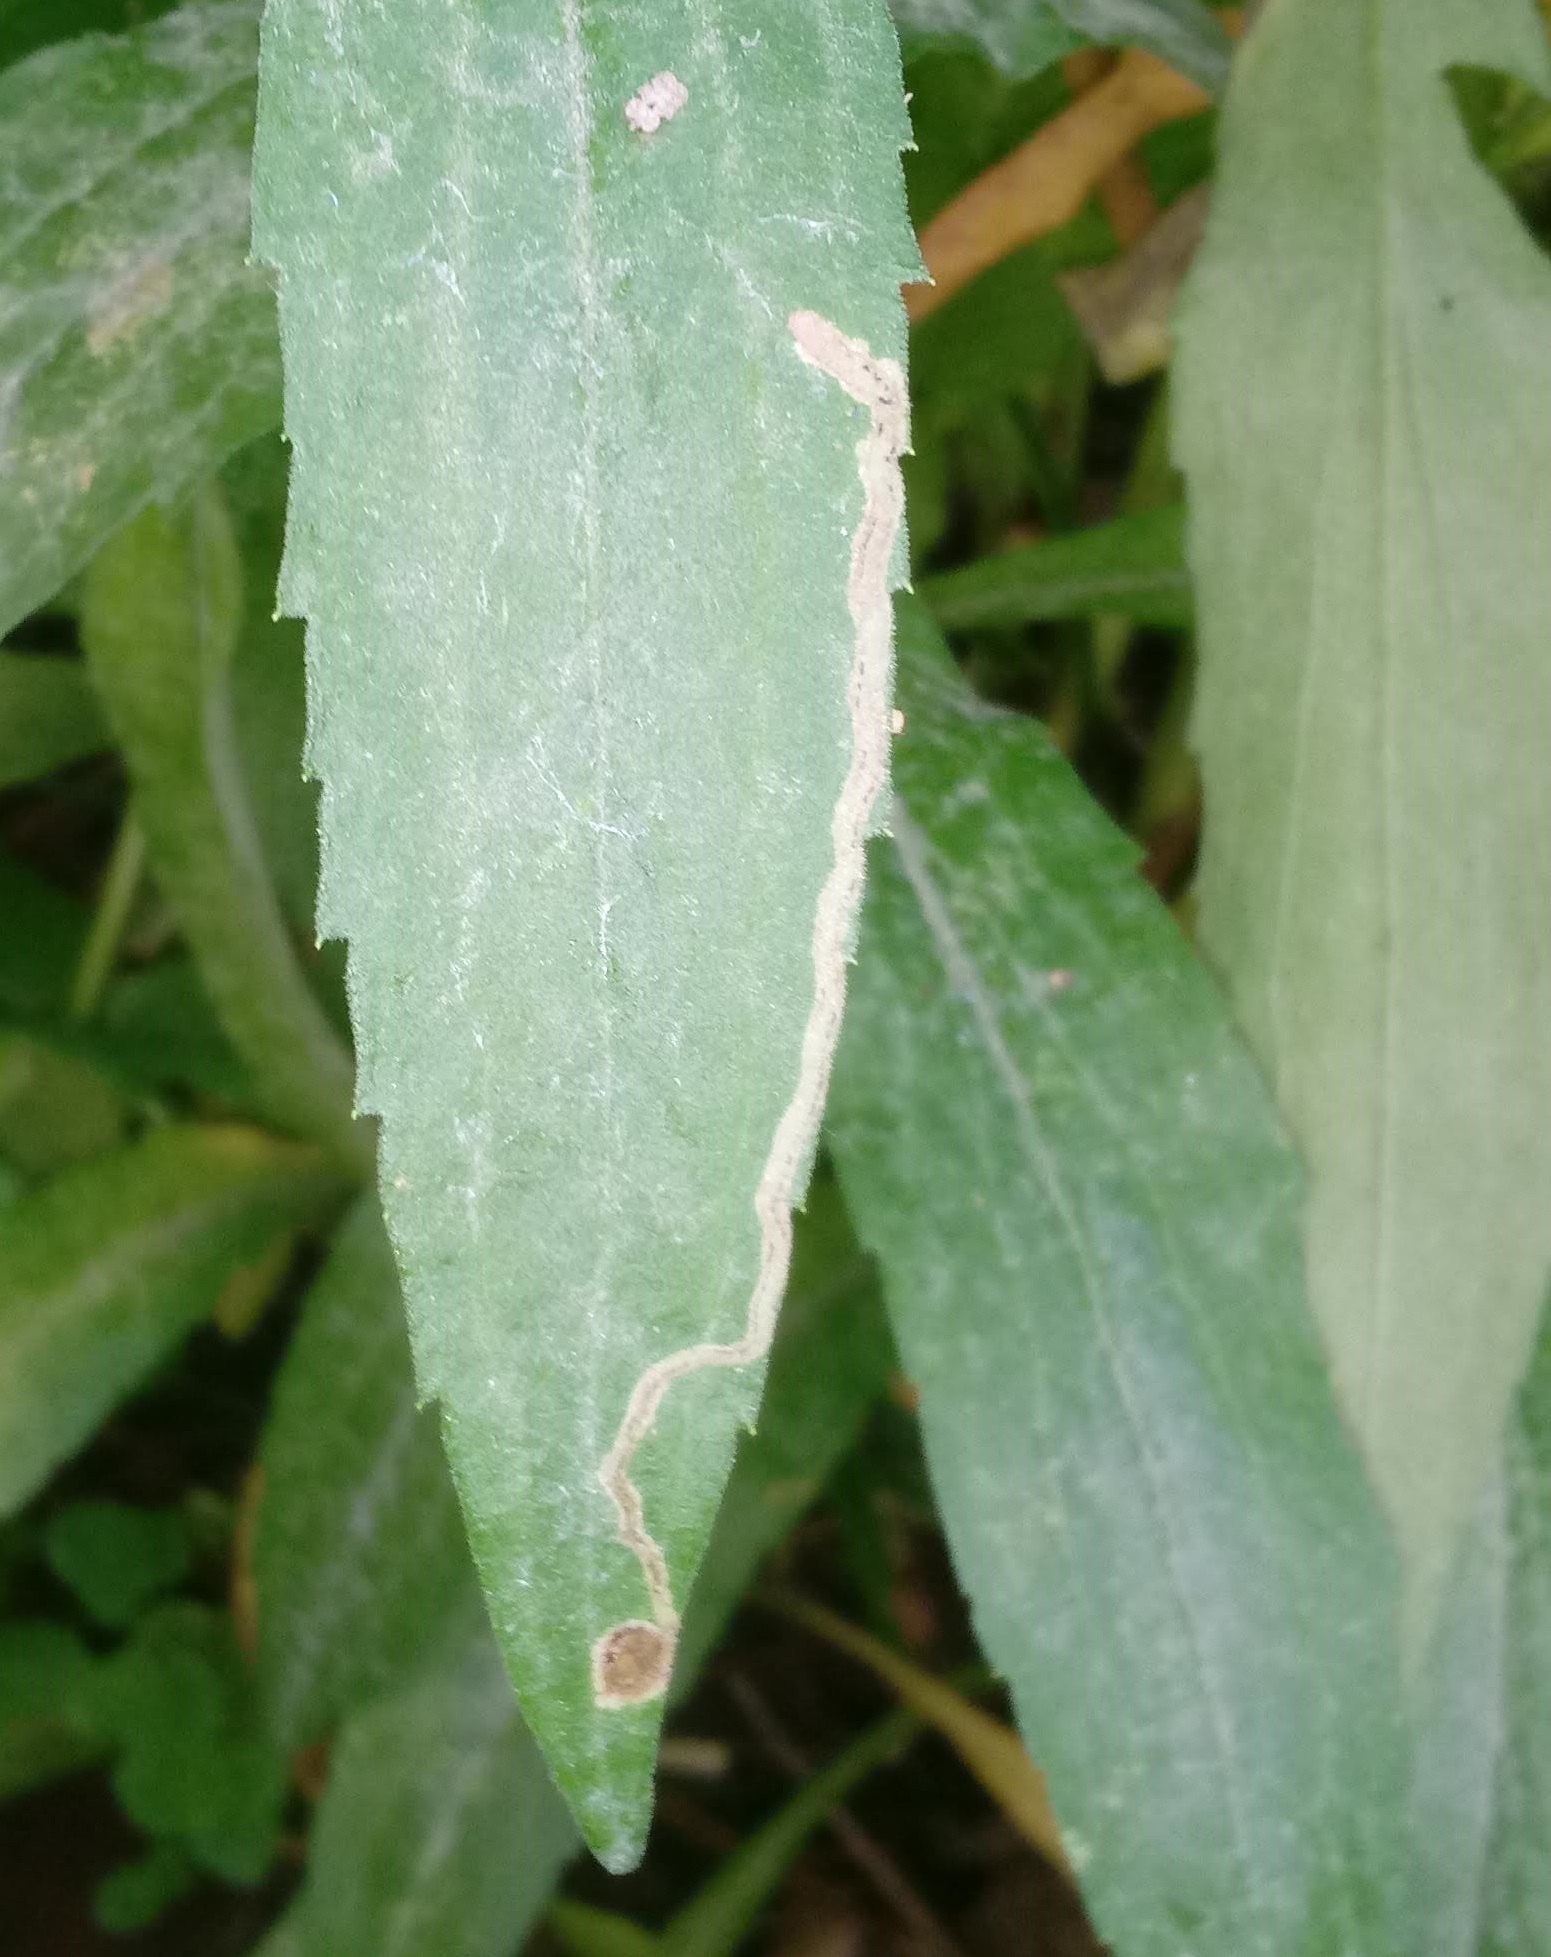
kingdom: Animalia
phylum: Arthropoda
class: Insecta
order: Diptera
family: Agromyzidae
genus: Liriomyza
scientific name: Liriomyza eupatorii
